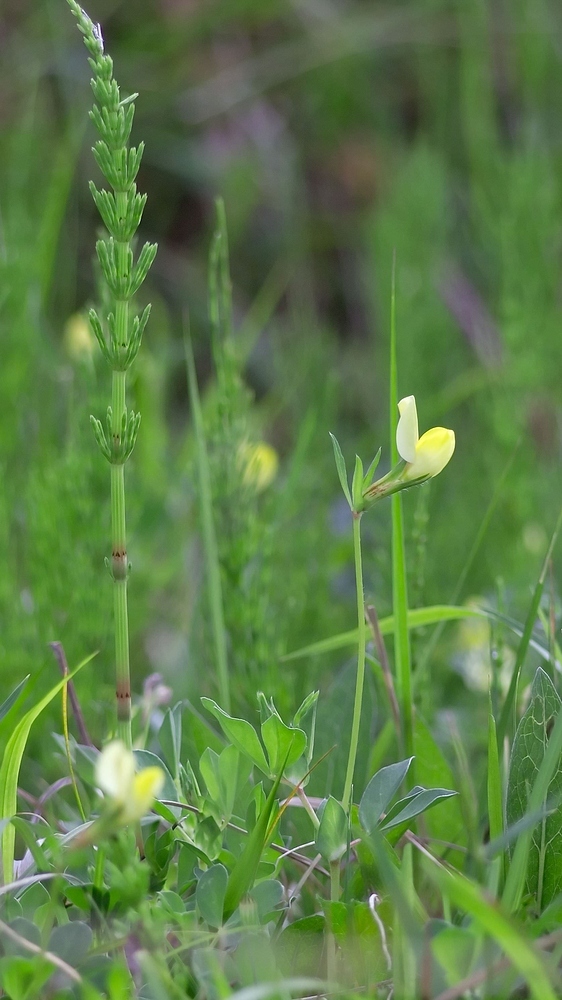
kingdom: Plantae
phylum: Tracheophyta
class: Magnoliopsida
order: Fabales
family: Fabaceae
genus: Lotus
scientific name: Lotus maritimus
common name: Dragon's-teeth
